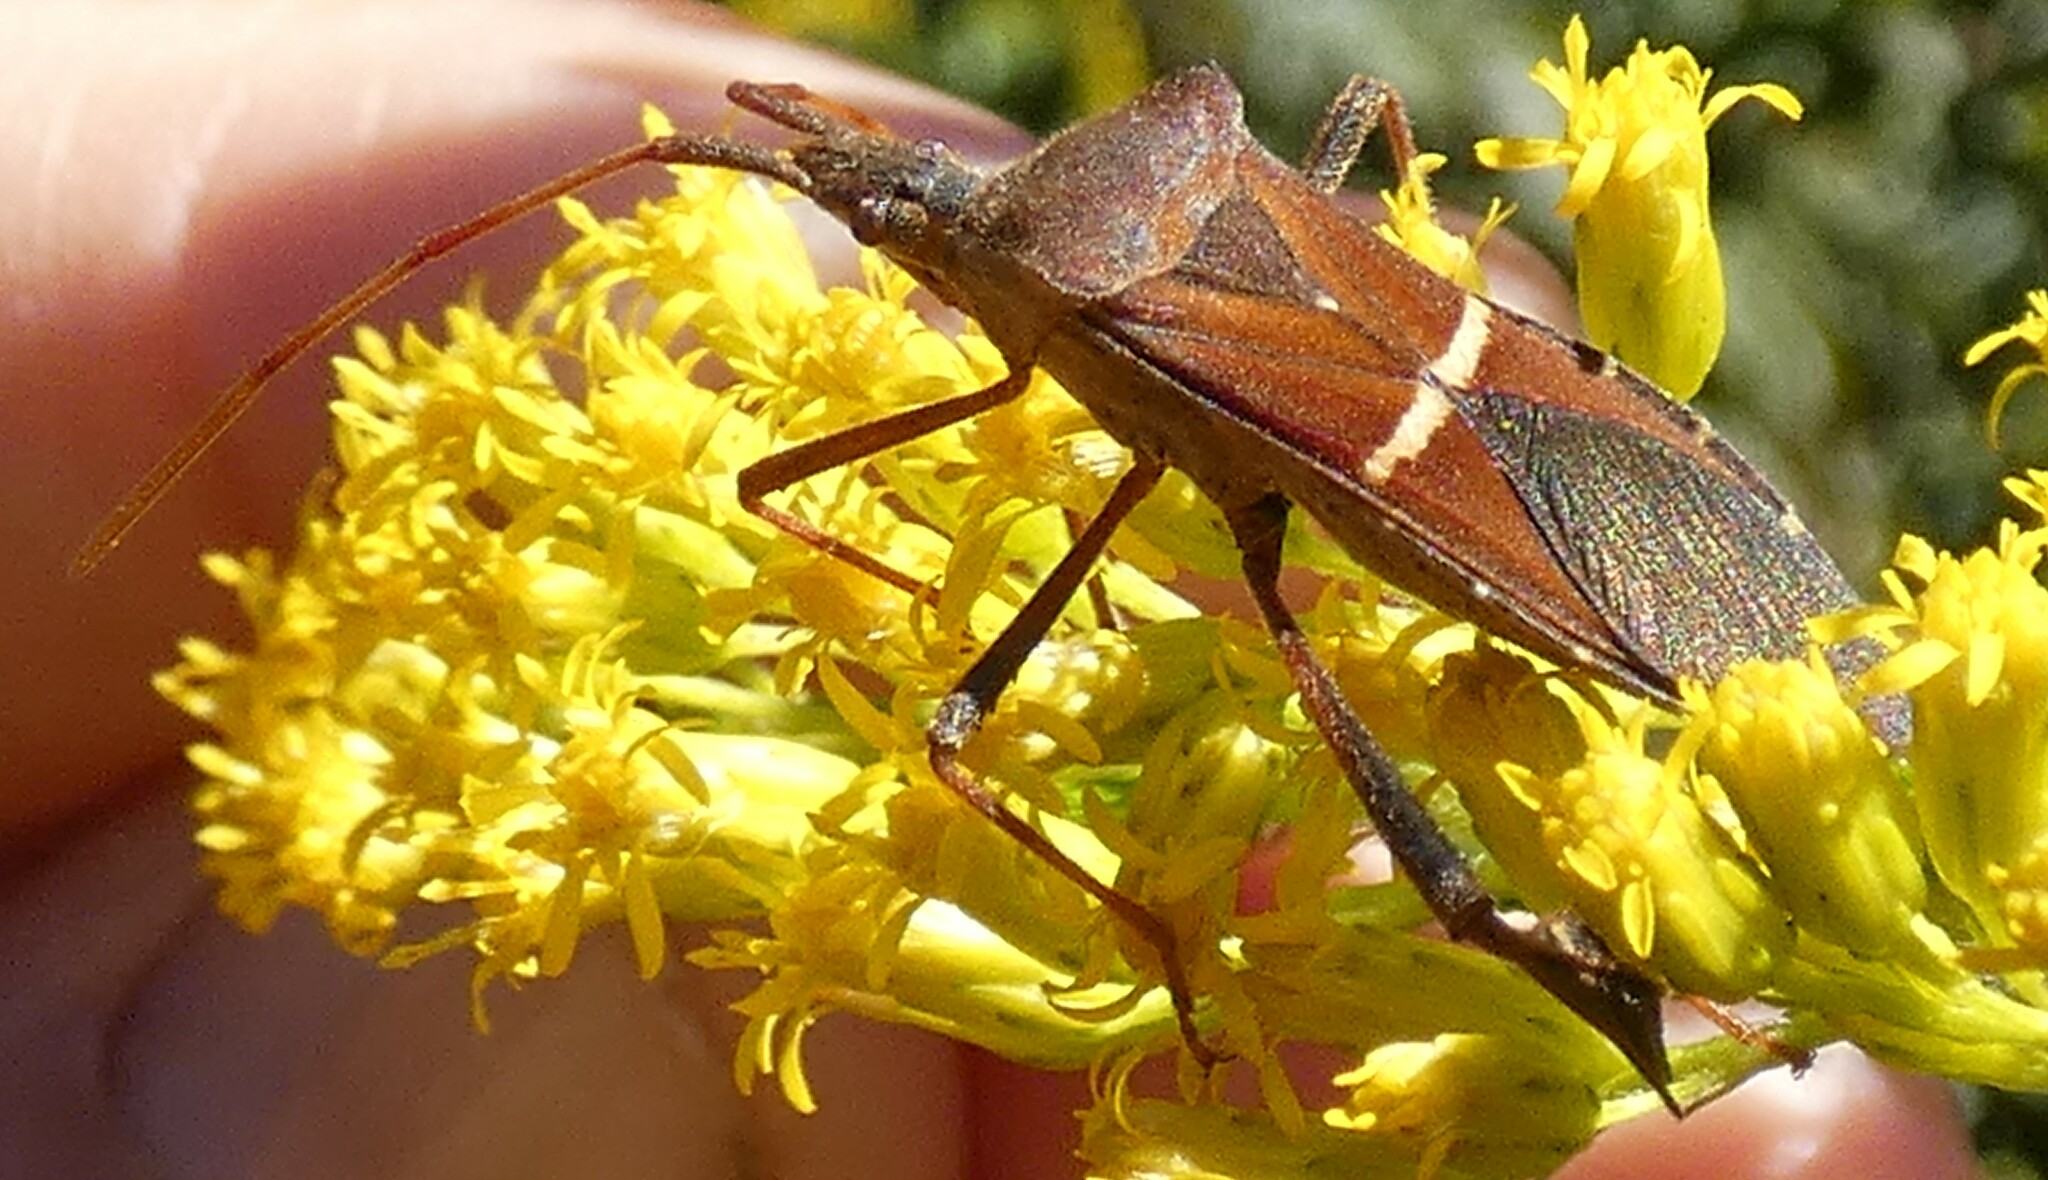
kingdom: Animalia
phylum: Arthropoda
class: Insecta
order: Hemiptera
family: Coreidae
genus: Leptoglossus
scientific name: Leptoglossus phyllopus
